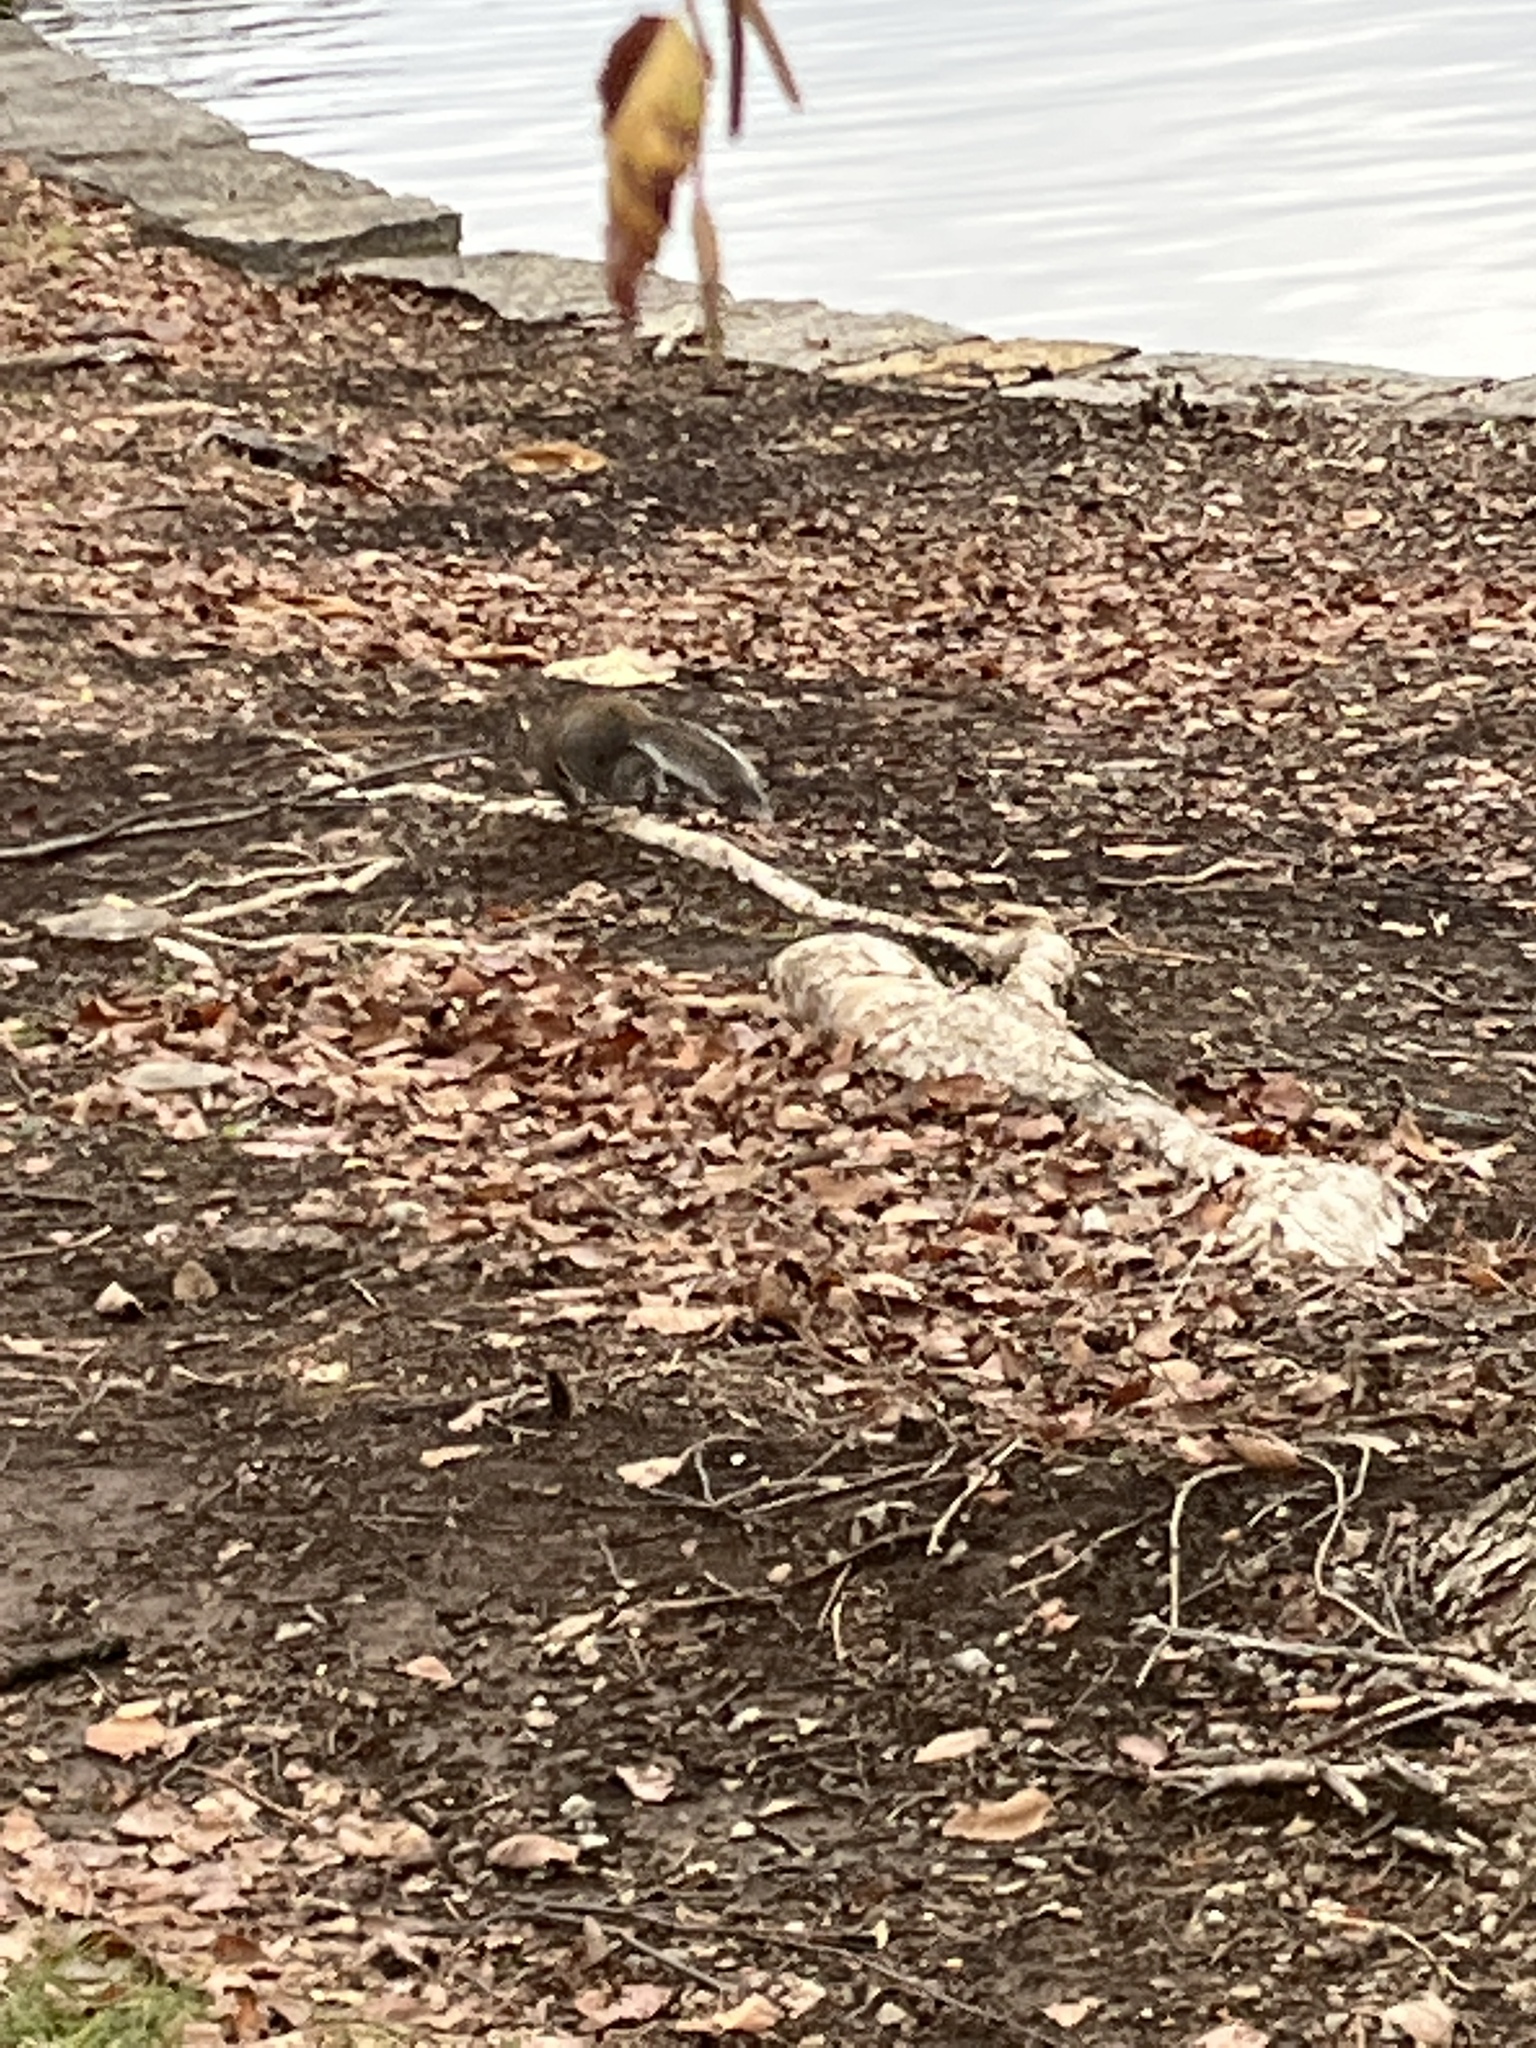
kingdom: Animalia
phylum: Chordata
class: Mammalia
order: Rodentia
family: Sciuridae
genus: Sciurus
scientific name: Sciurus carolinensis
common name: Eastern gray squirrel
